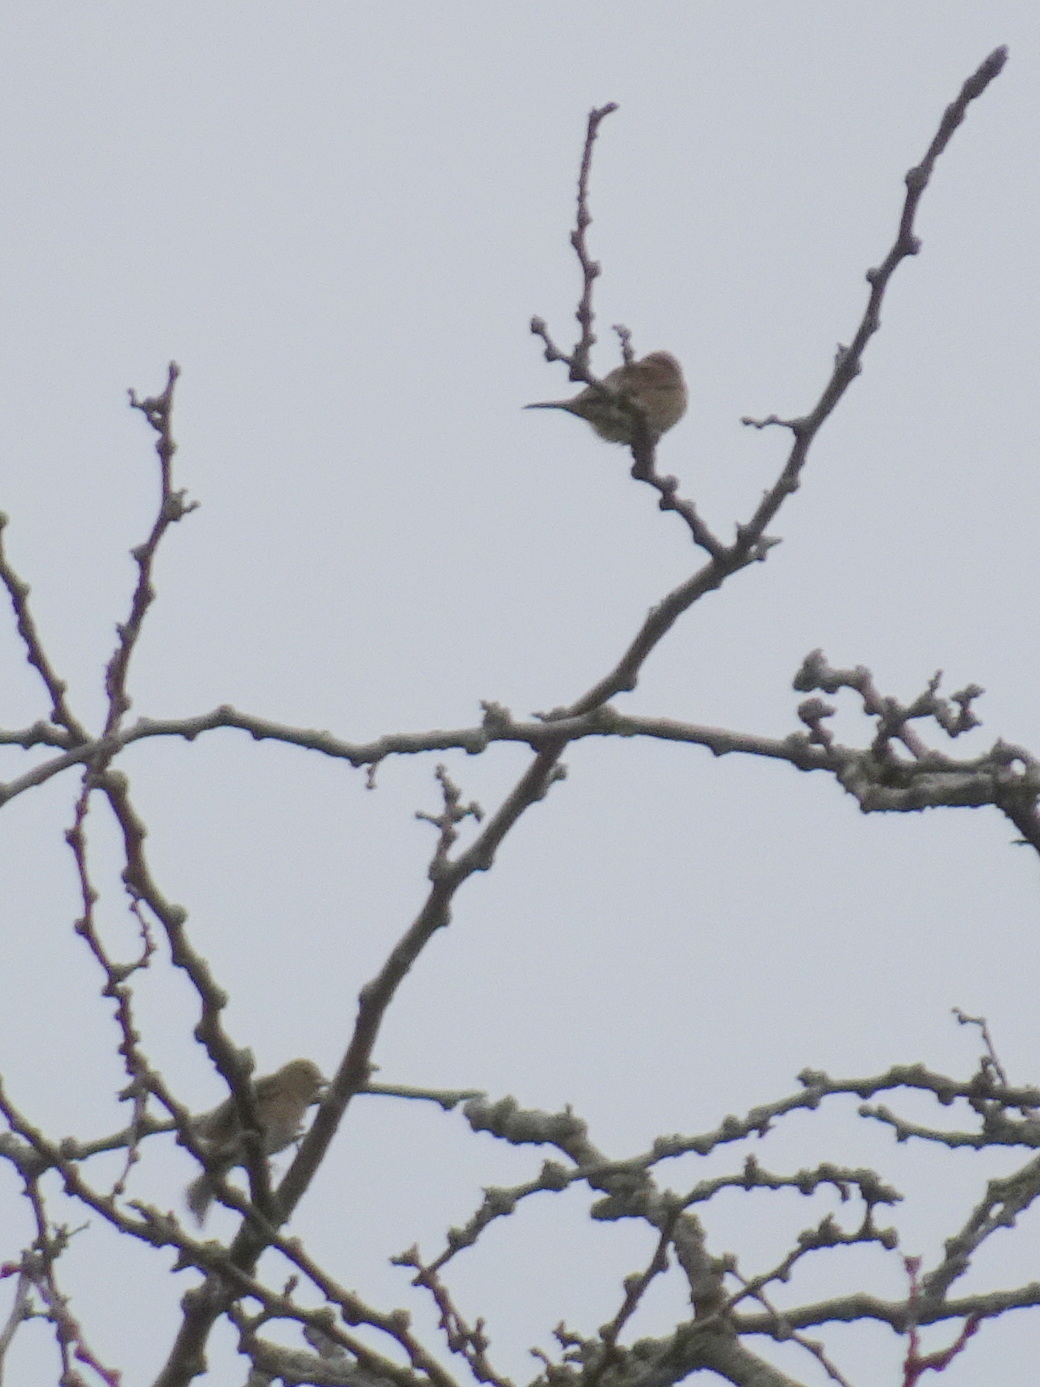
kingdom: Animalia
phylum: Chordata
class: Aves
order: Passeriformes
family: Cardinalidae
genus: Passerina
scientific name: Passerina
